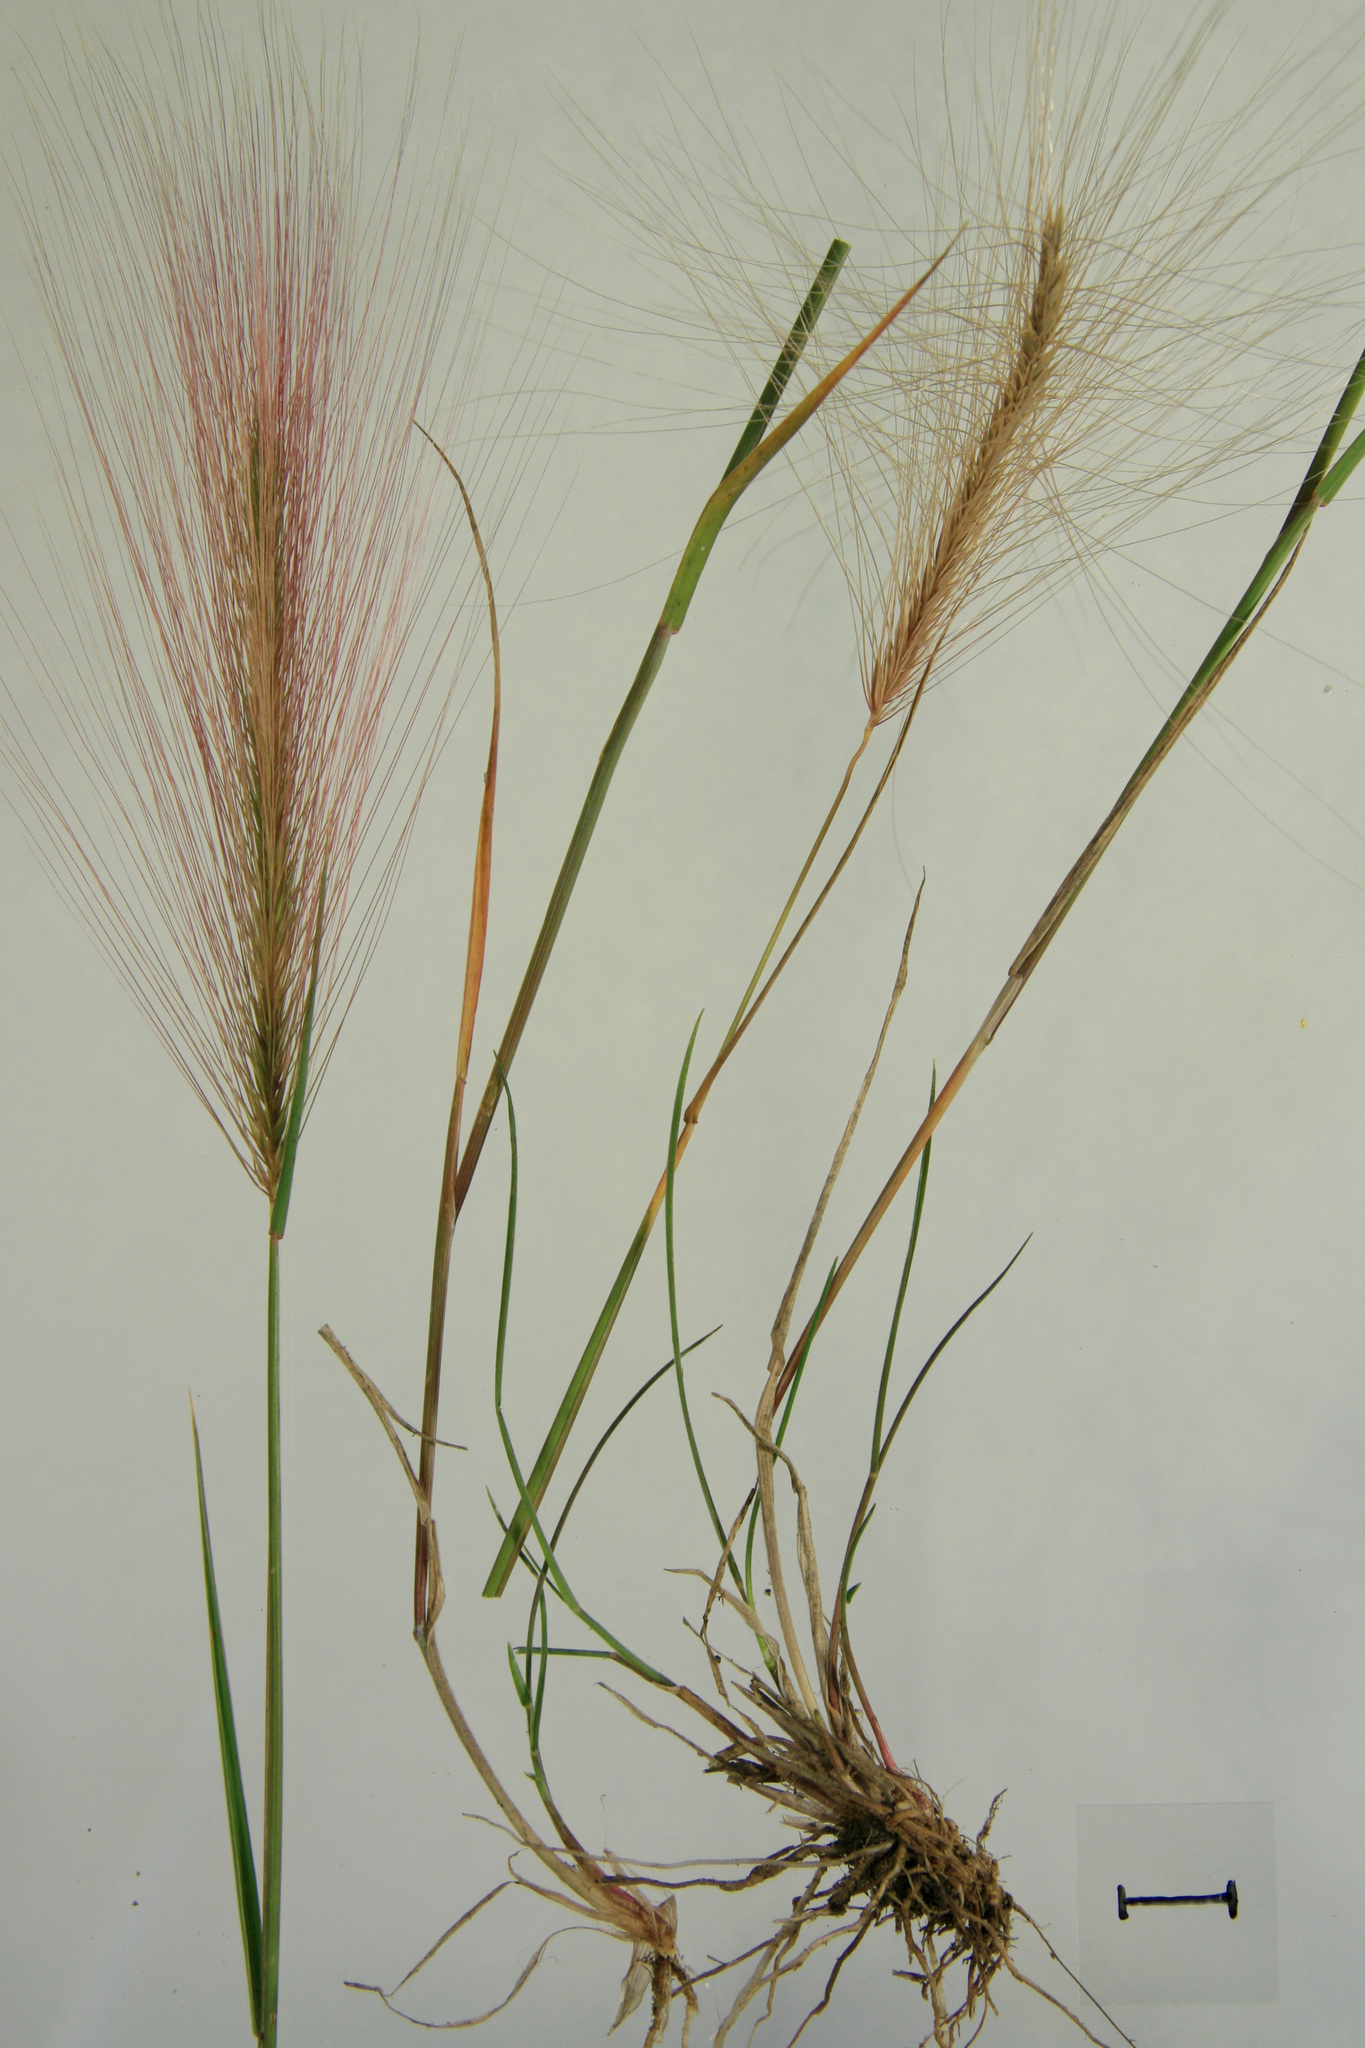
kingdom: Plantae
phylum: Tracheophyta
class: Liliopsida
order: Poales
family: Poaceae
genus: Hordeum
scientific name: Hordeum jubatum
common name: Foxtail barley
